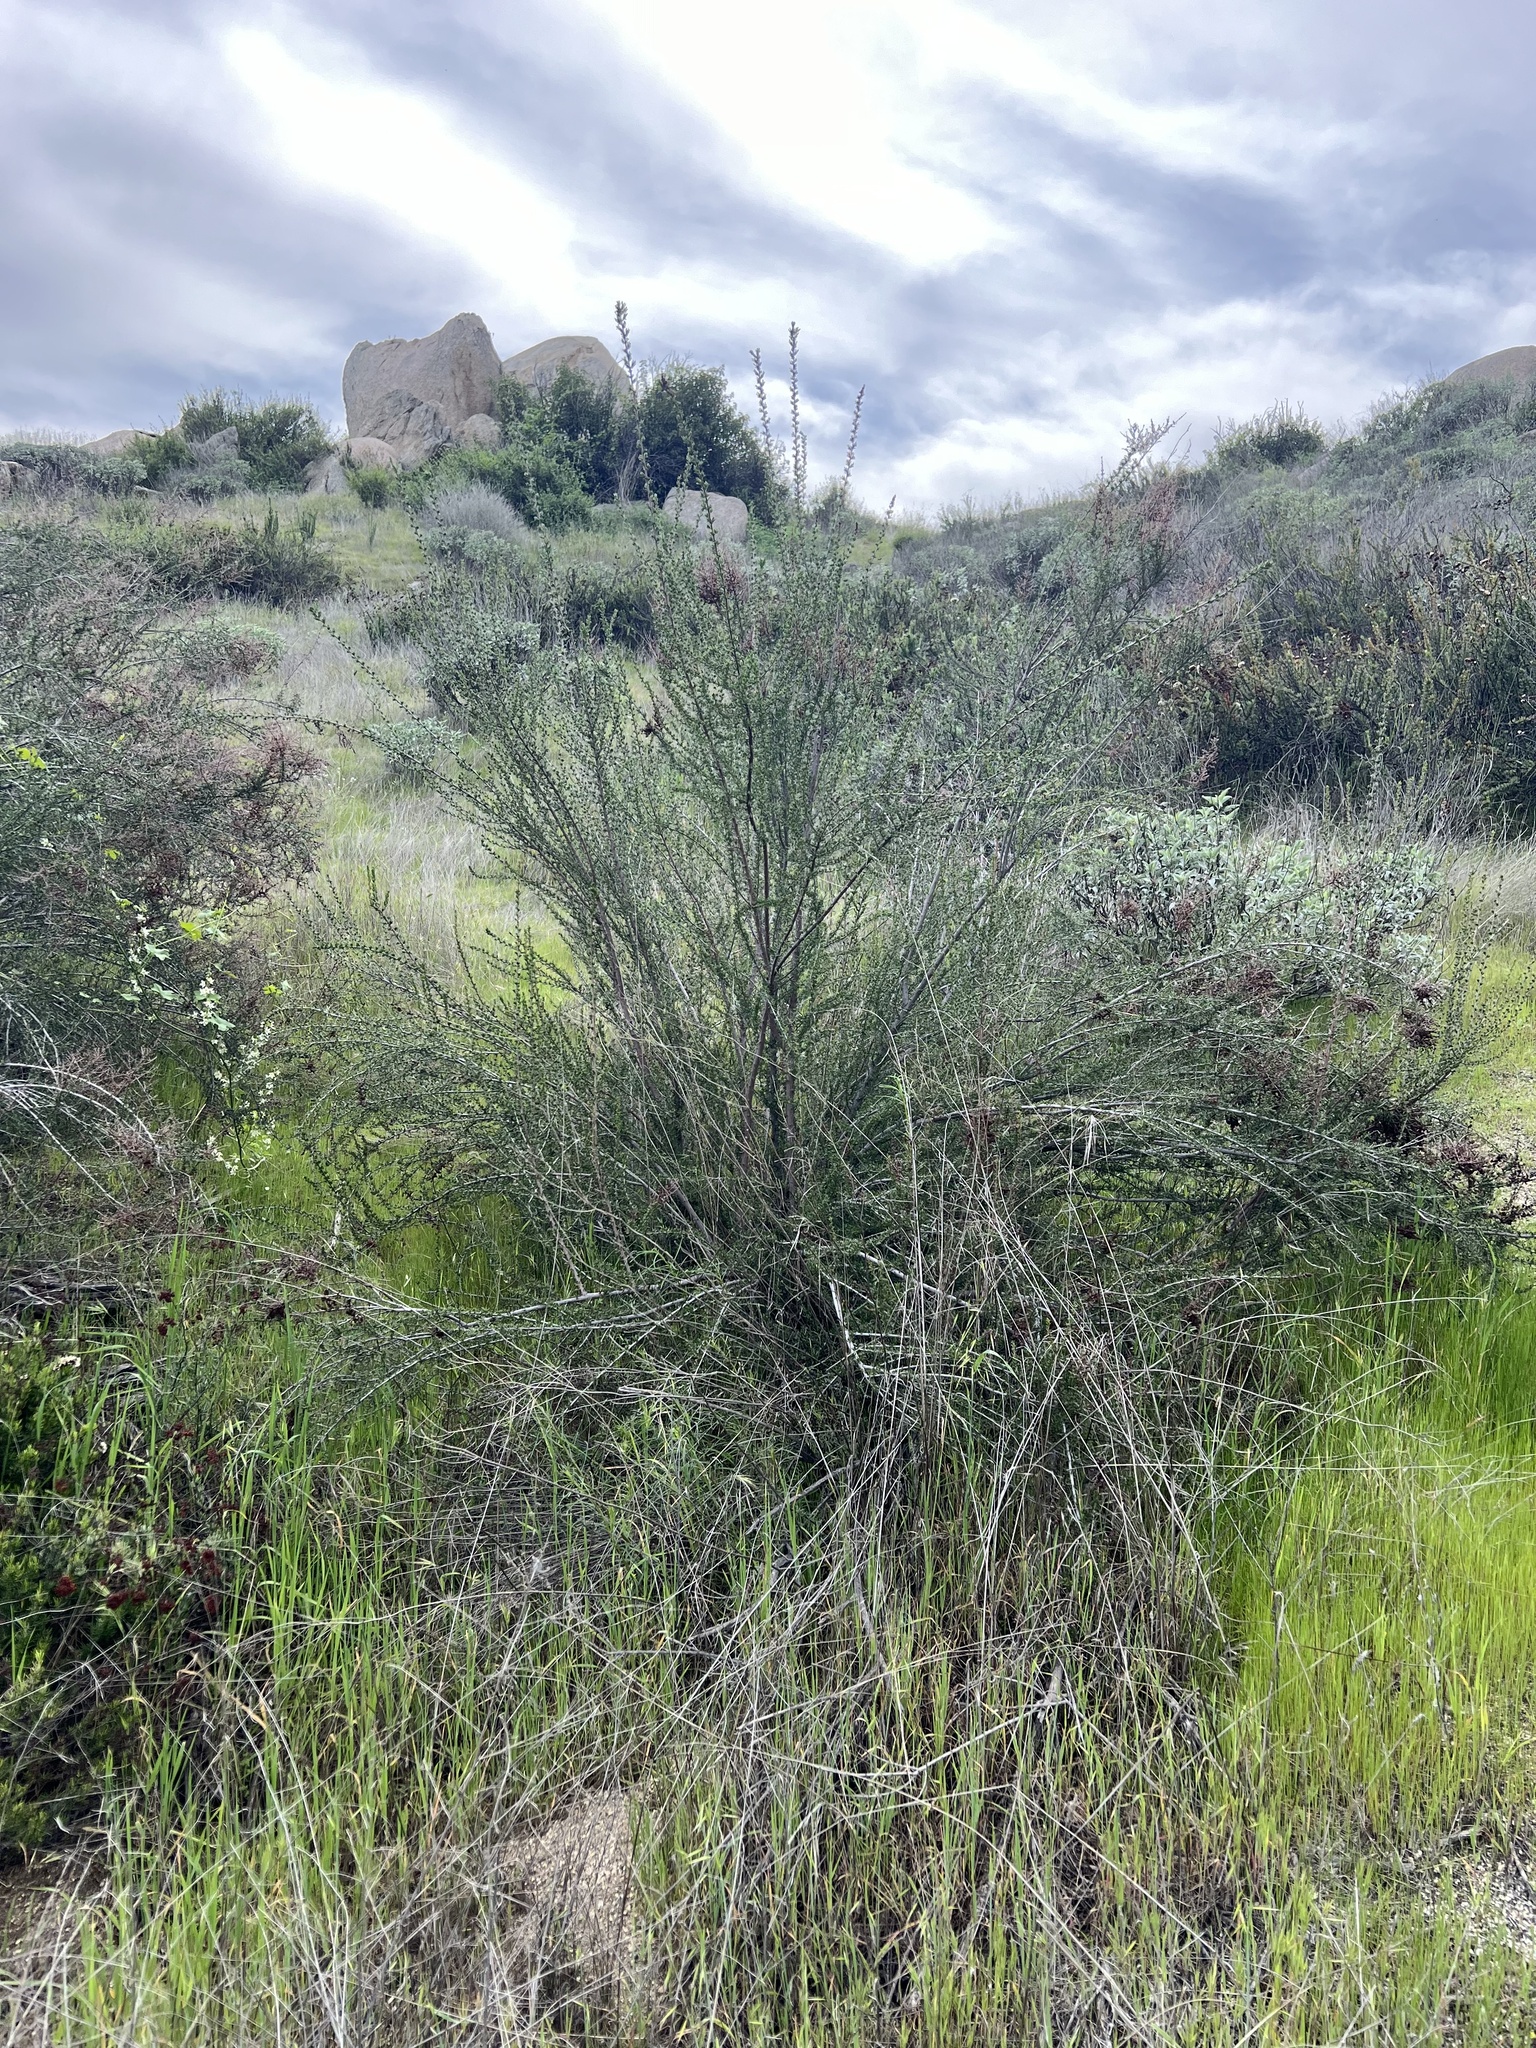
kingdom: Plantae
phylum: Tracheophyta
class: Magnoliopsida
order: Rosales
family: Rosaceae
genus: Adenostoma
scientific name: Adenostoma fasciculatum
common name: Chamise
